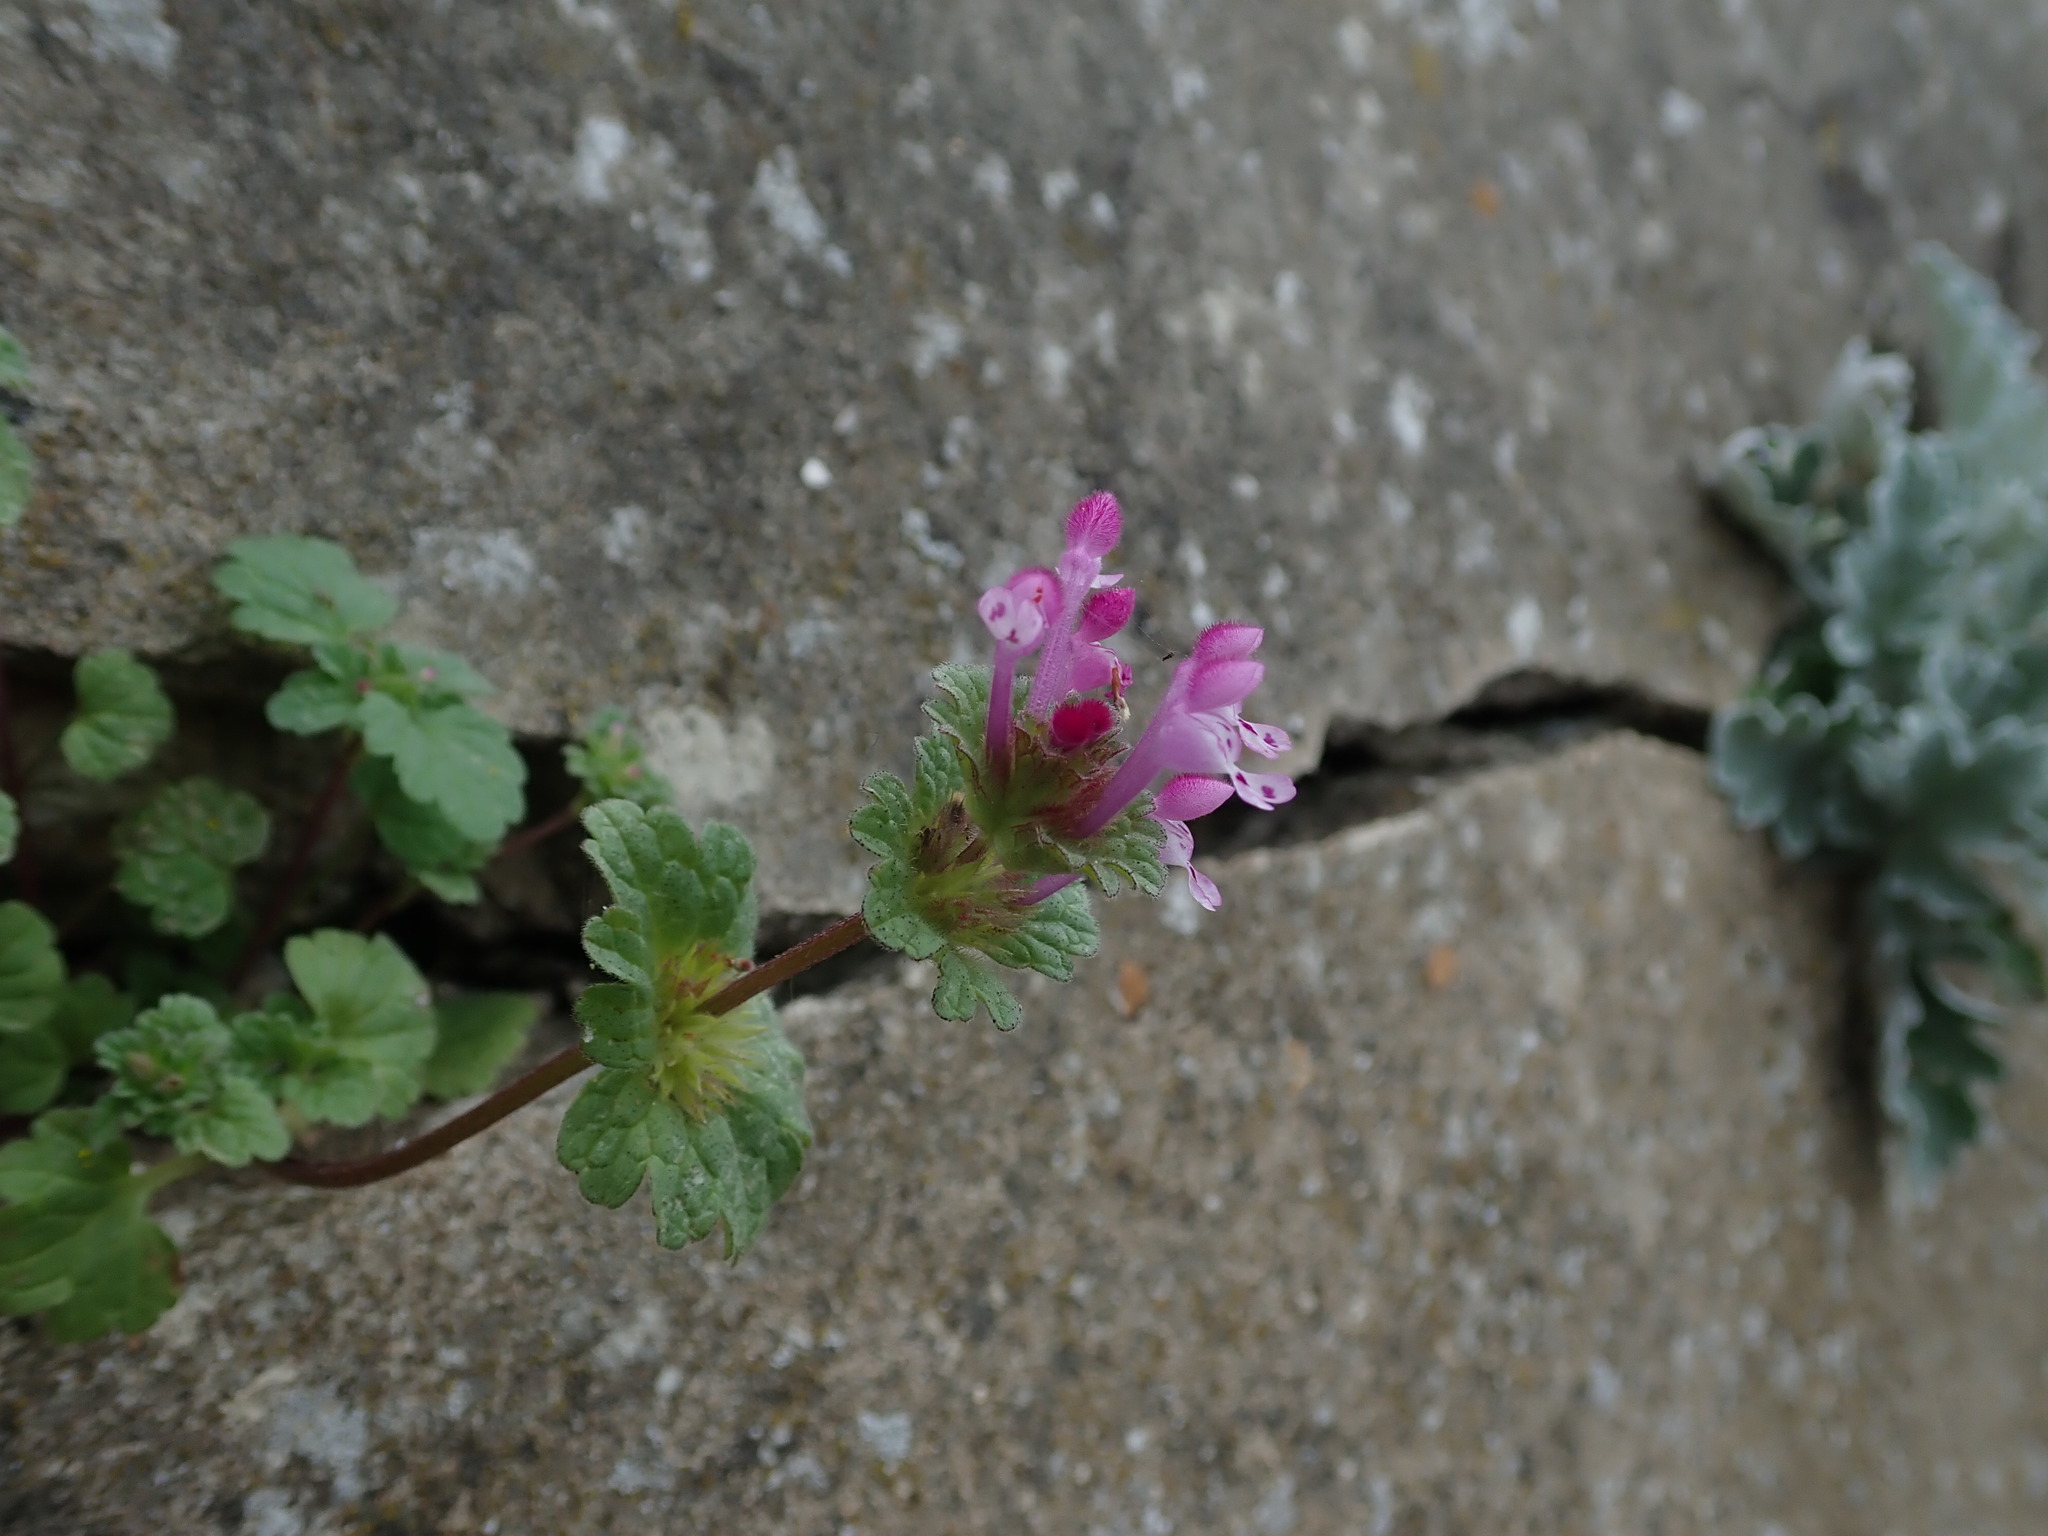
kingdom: Plantae
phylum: Tracheophyta
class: Magnoliopsida
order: Lamiales
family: Lamiaceae
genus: Lamium
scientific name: Lamium amplexicaule
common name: Henbit dead-nettle
